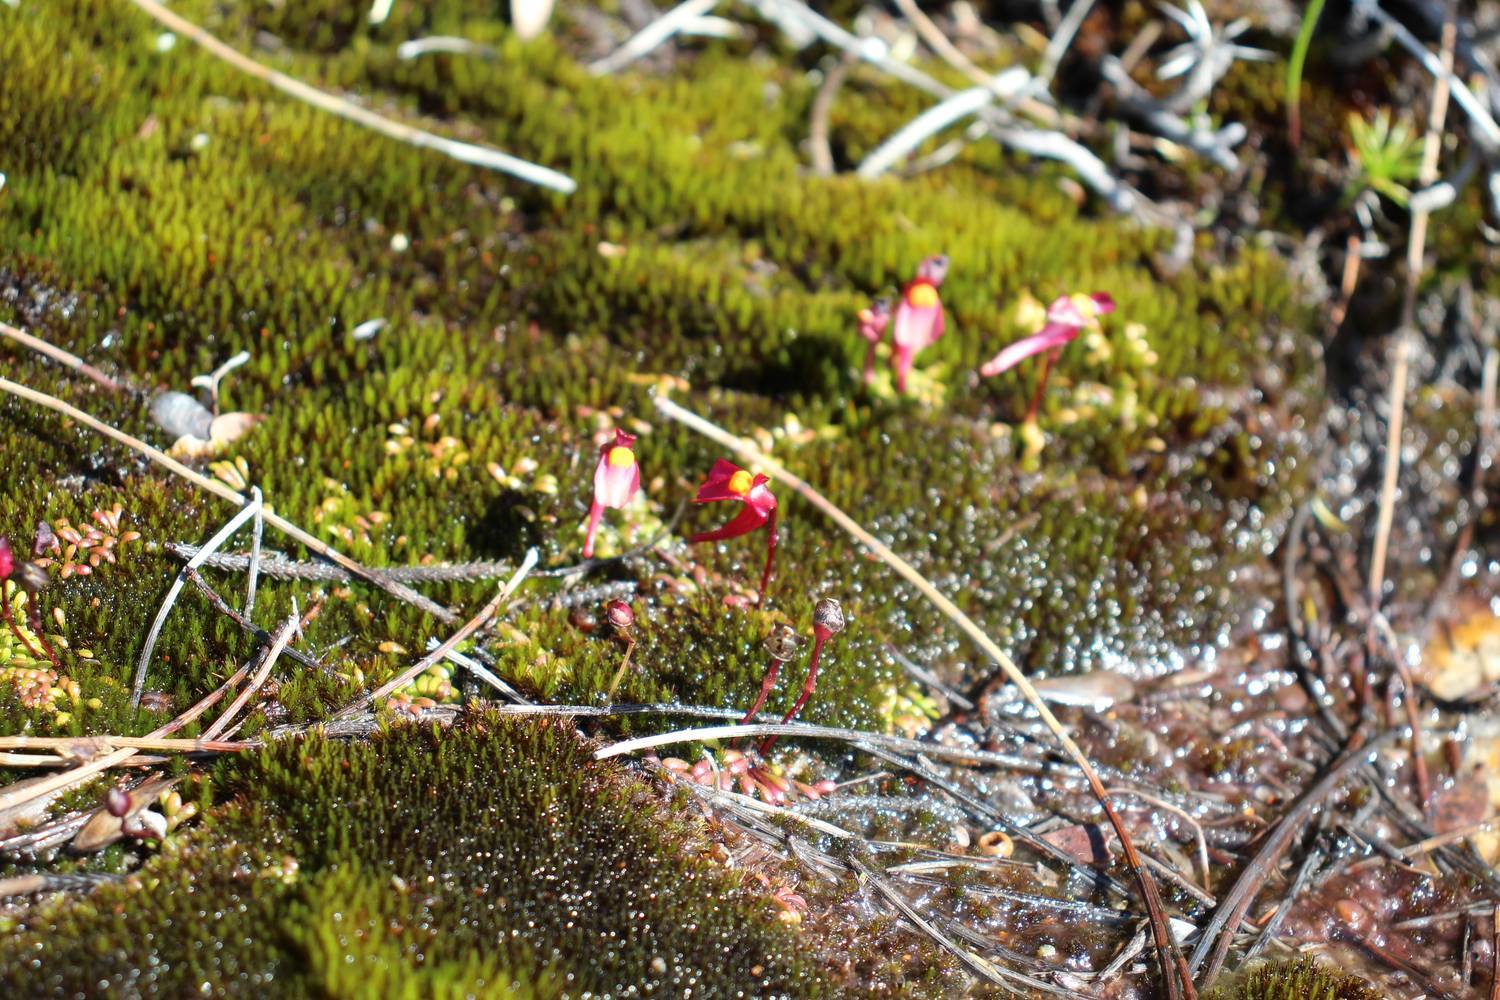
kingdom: Plantae
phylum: Tracheophyta
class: Magnoliopsida
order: Lamiales
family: Lentibulariaceae
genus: Utricularia
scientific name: Utricularia menziesii
